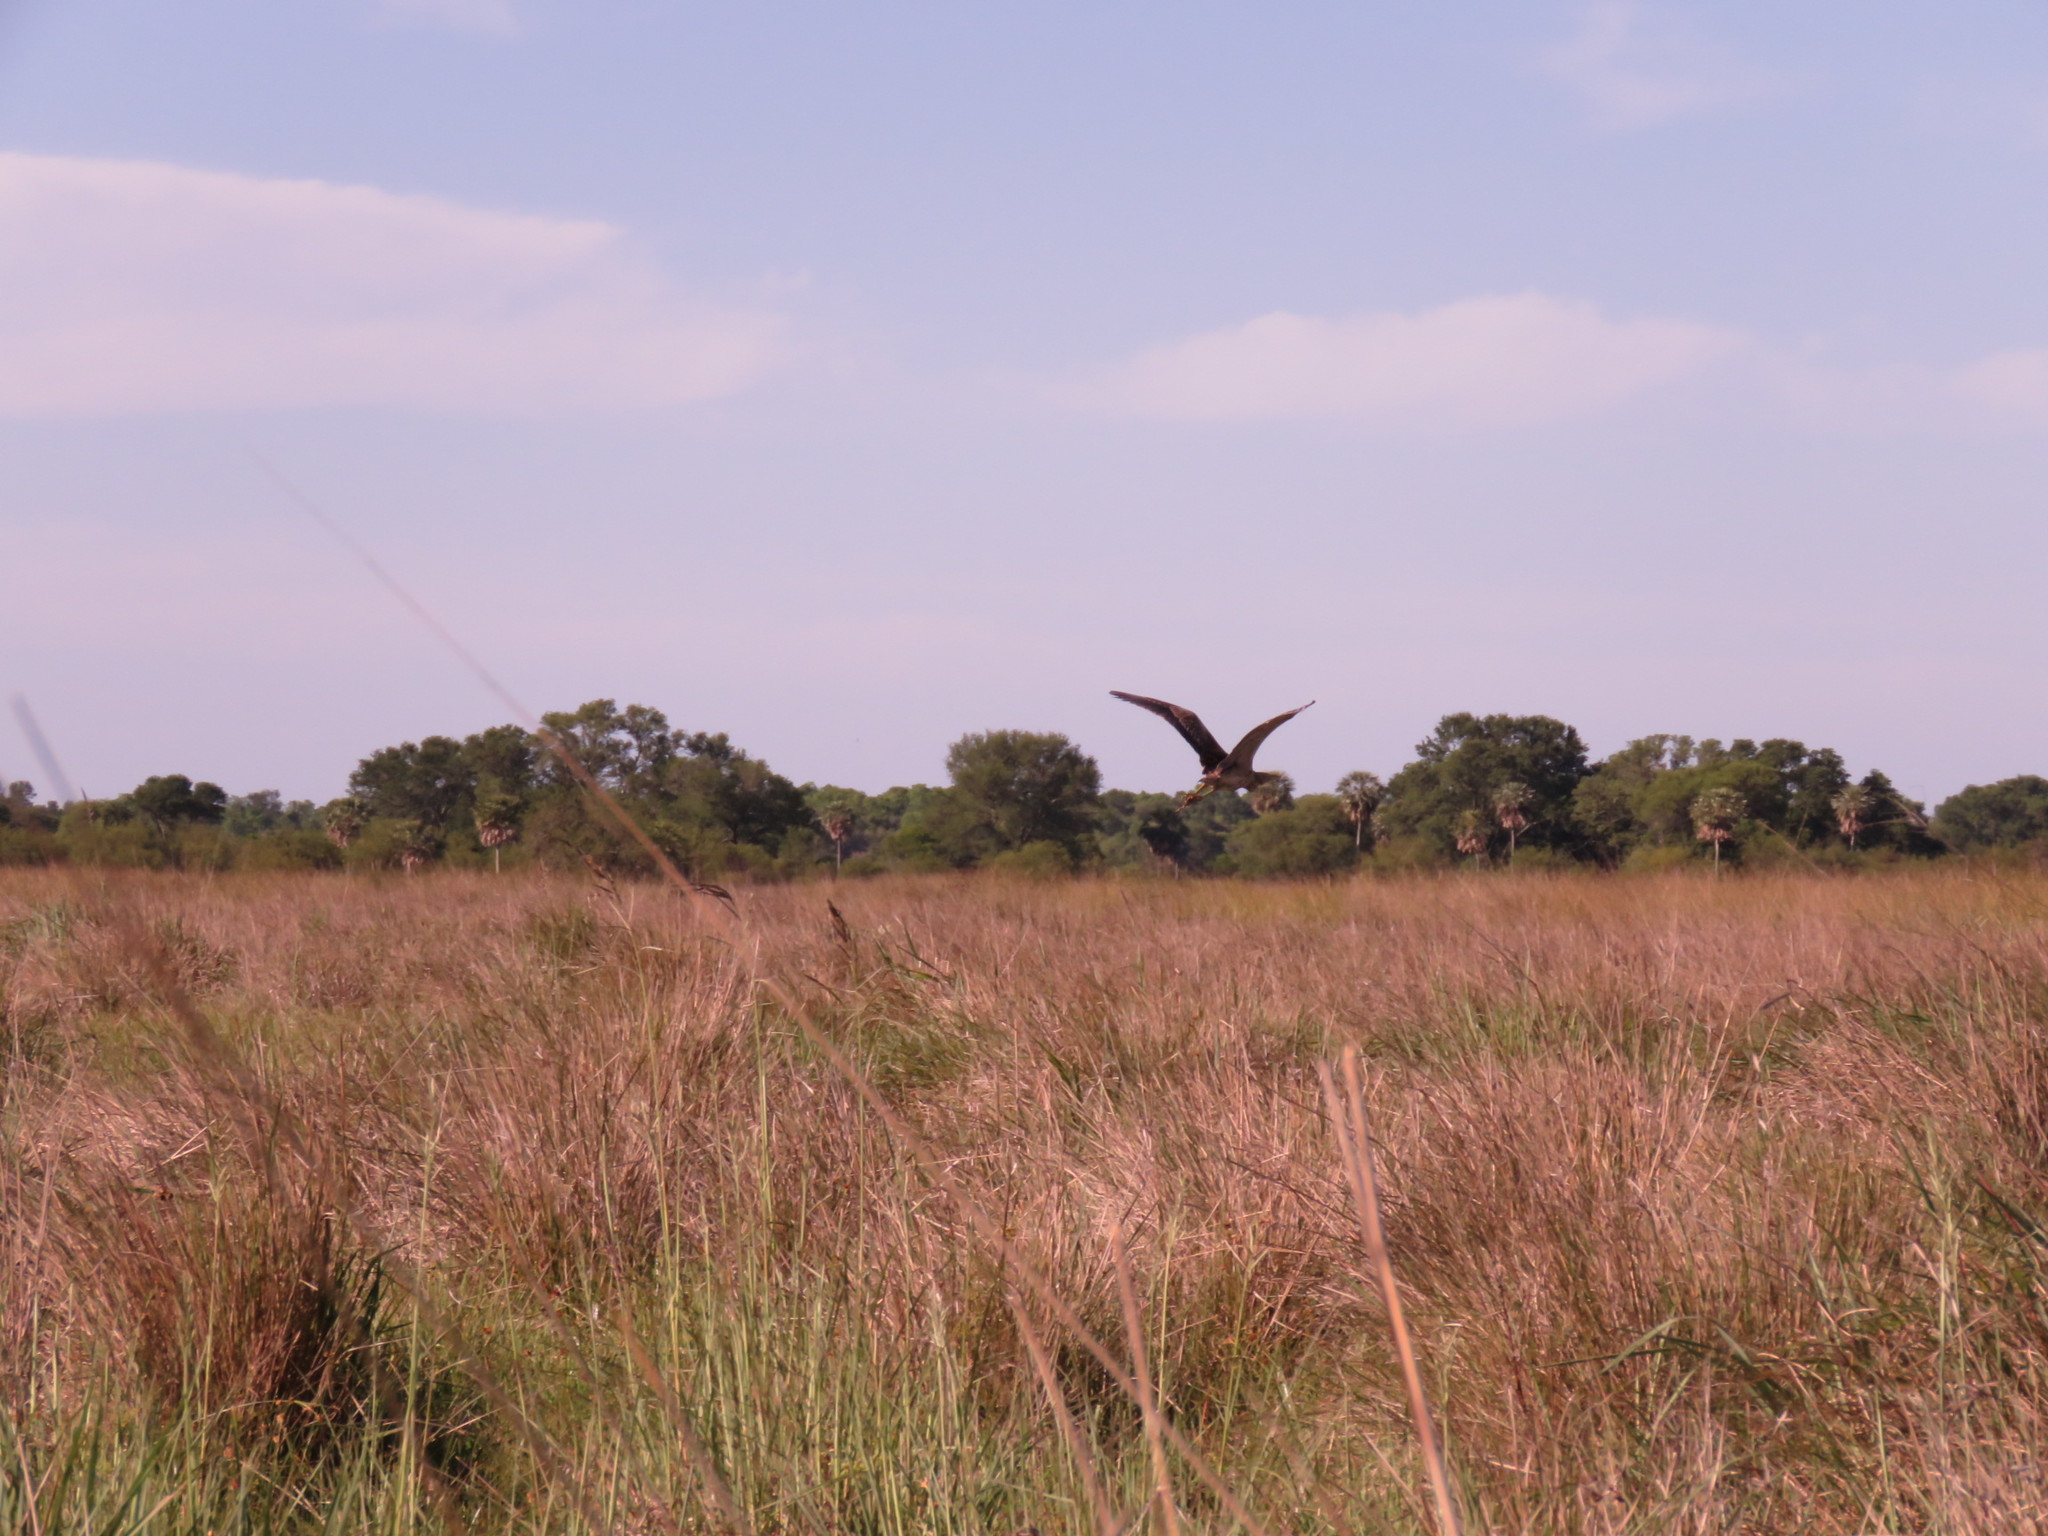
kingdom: Animalia
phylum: Chordata
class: Aves
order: Pelecaniformes
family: Ardeidae
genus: Botaurus
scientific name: Botaurus pinnatus
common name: Pinnated bittern
